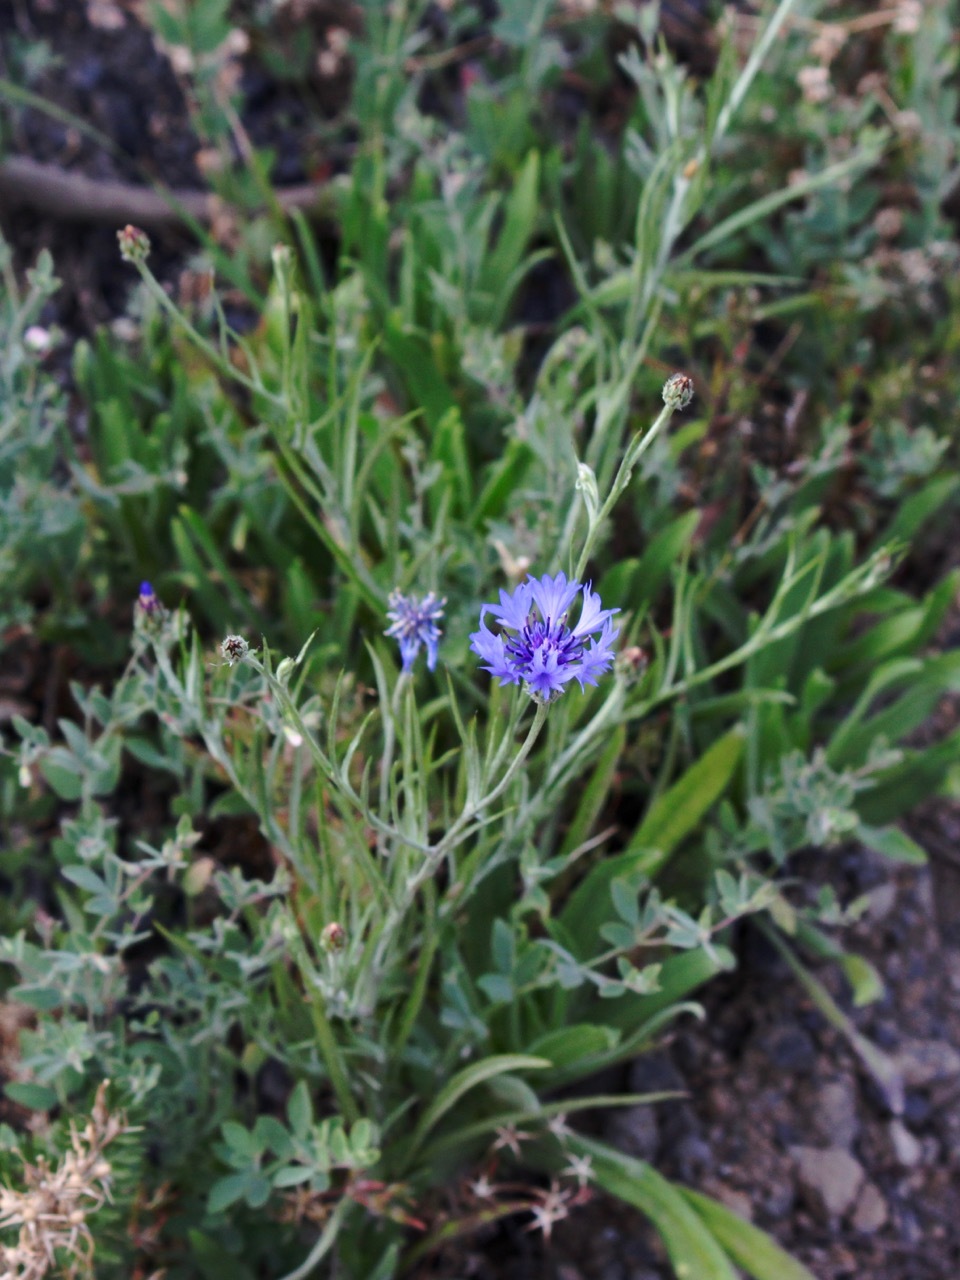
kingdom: Plantae
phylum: Tracheophyta
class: Magnoliopsida
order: Asterales
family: Asteraceae
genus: Centaurea
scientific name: Centaurea cyanus
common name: Cornflower
